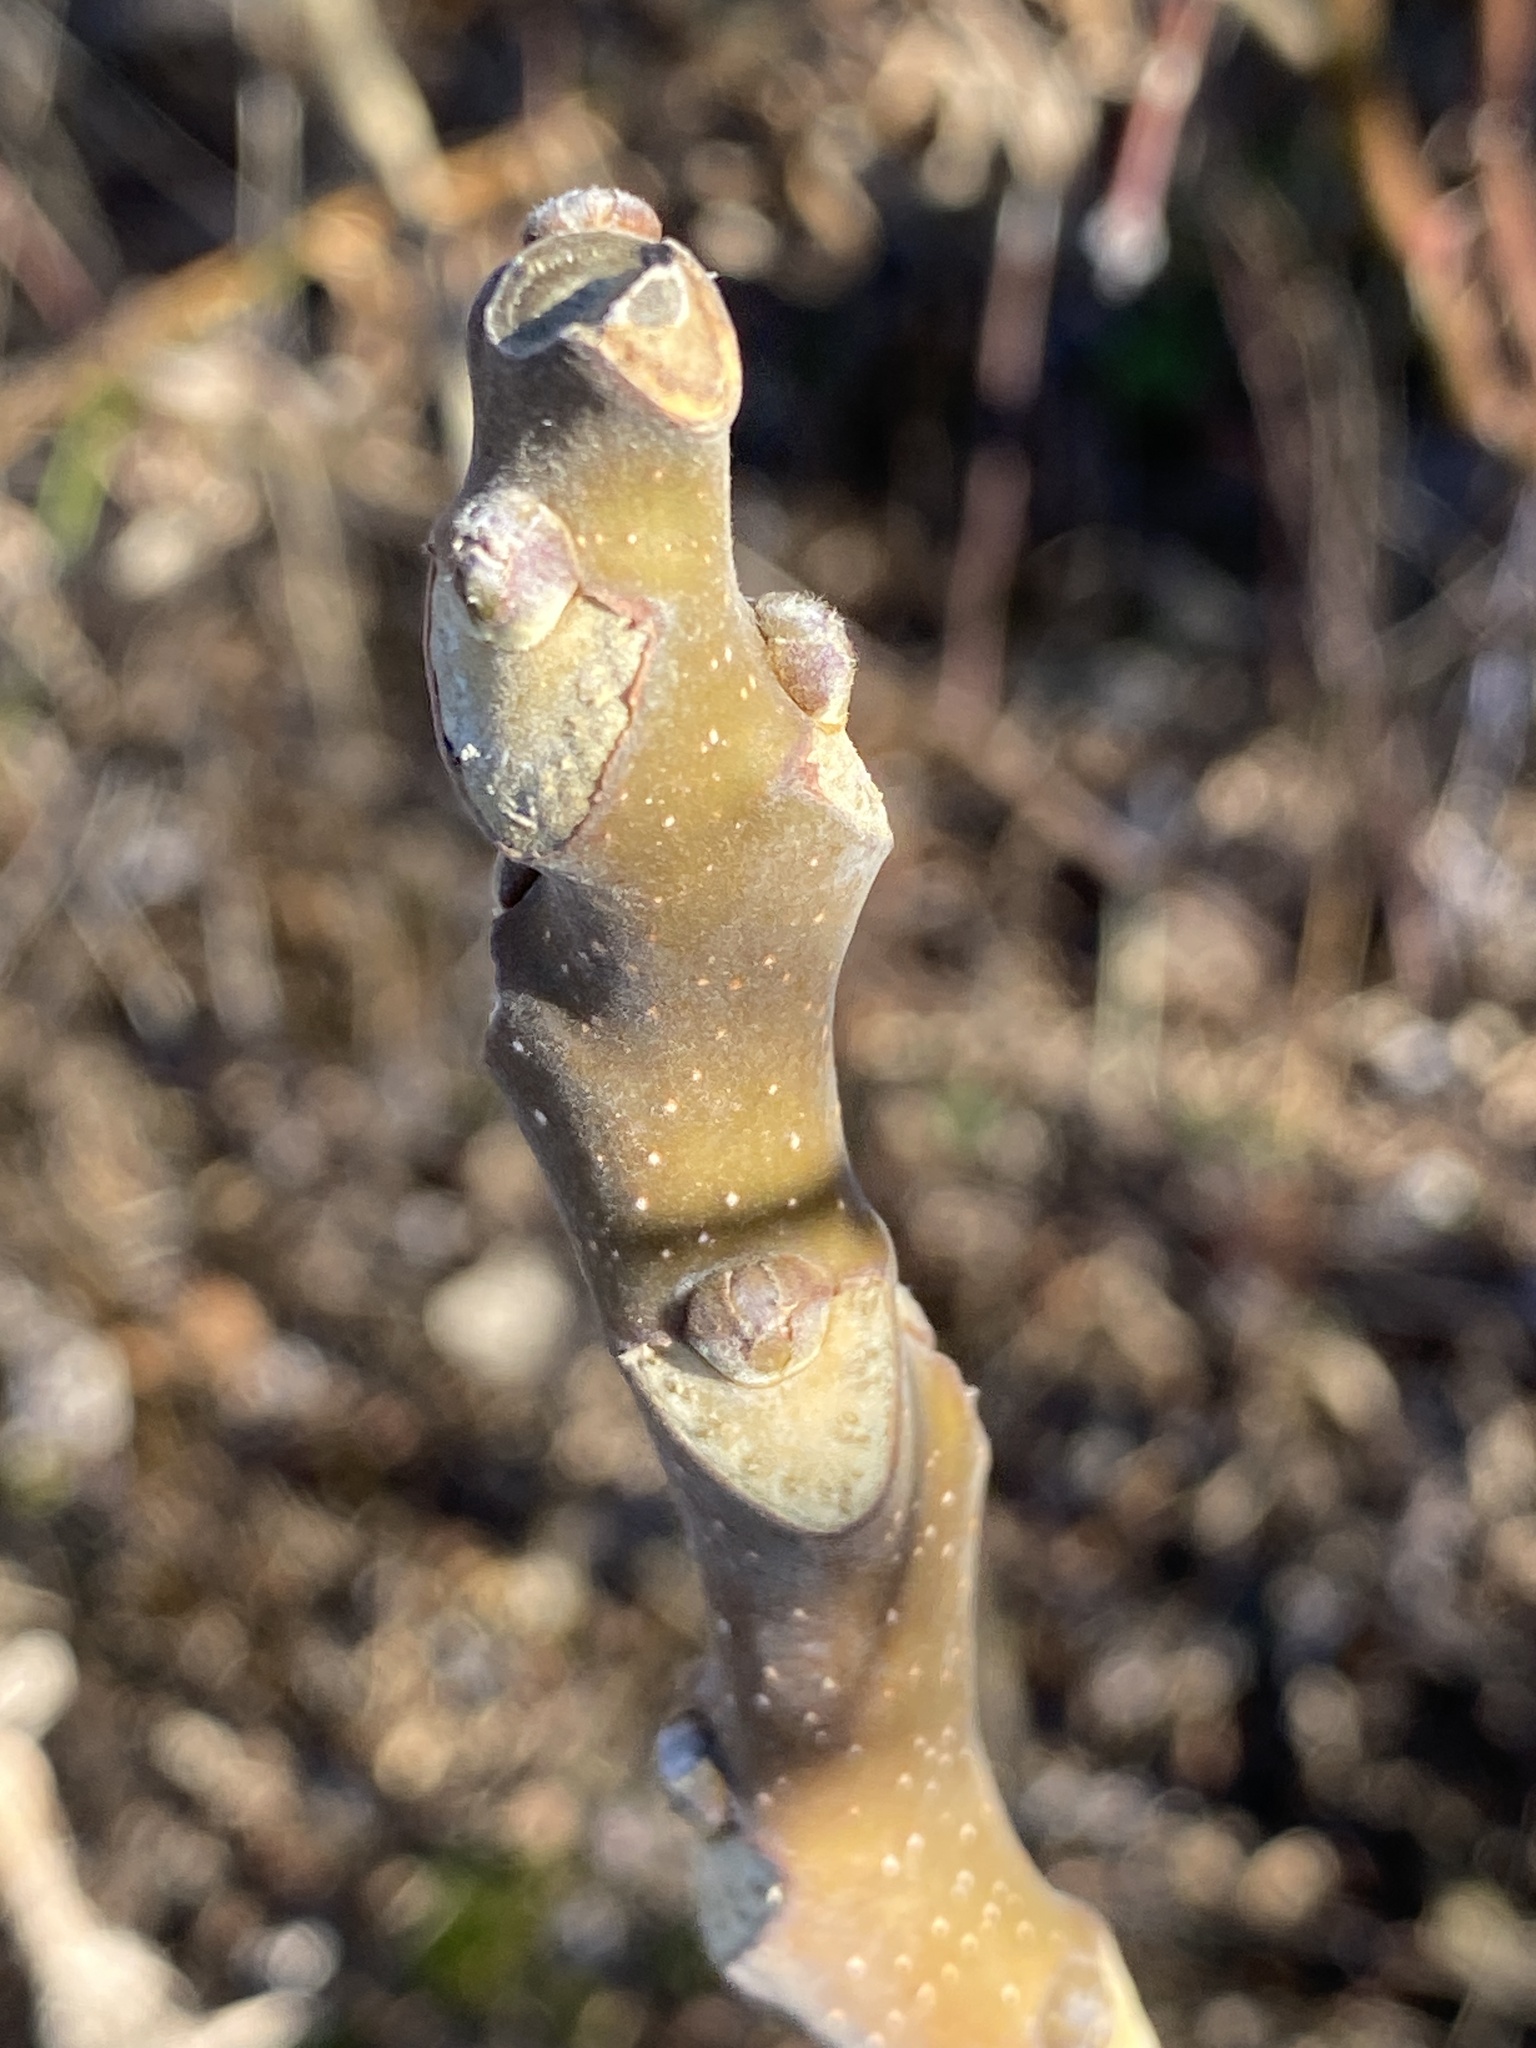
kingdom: Plantae
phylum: Tracheophyta
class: Magnoliopsida
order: Sapindales
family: Simaroubaceae
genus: Ailanthus
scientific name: Ailanthus altissima
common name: Tree-of-heaven
